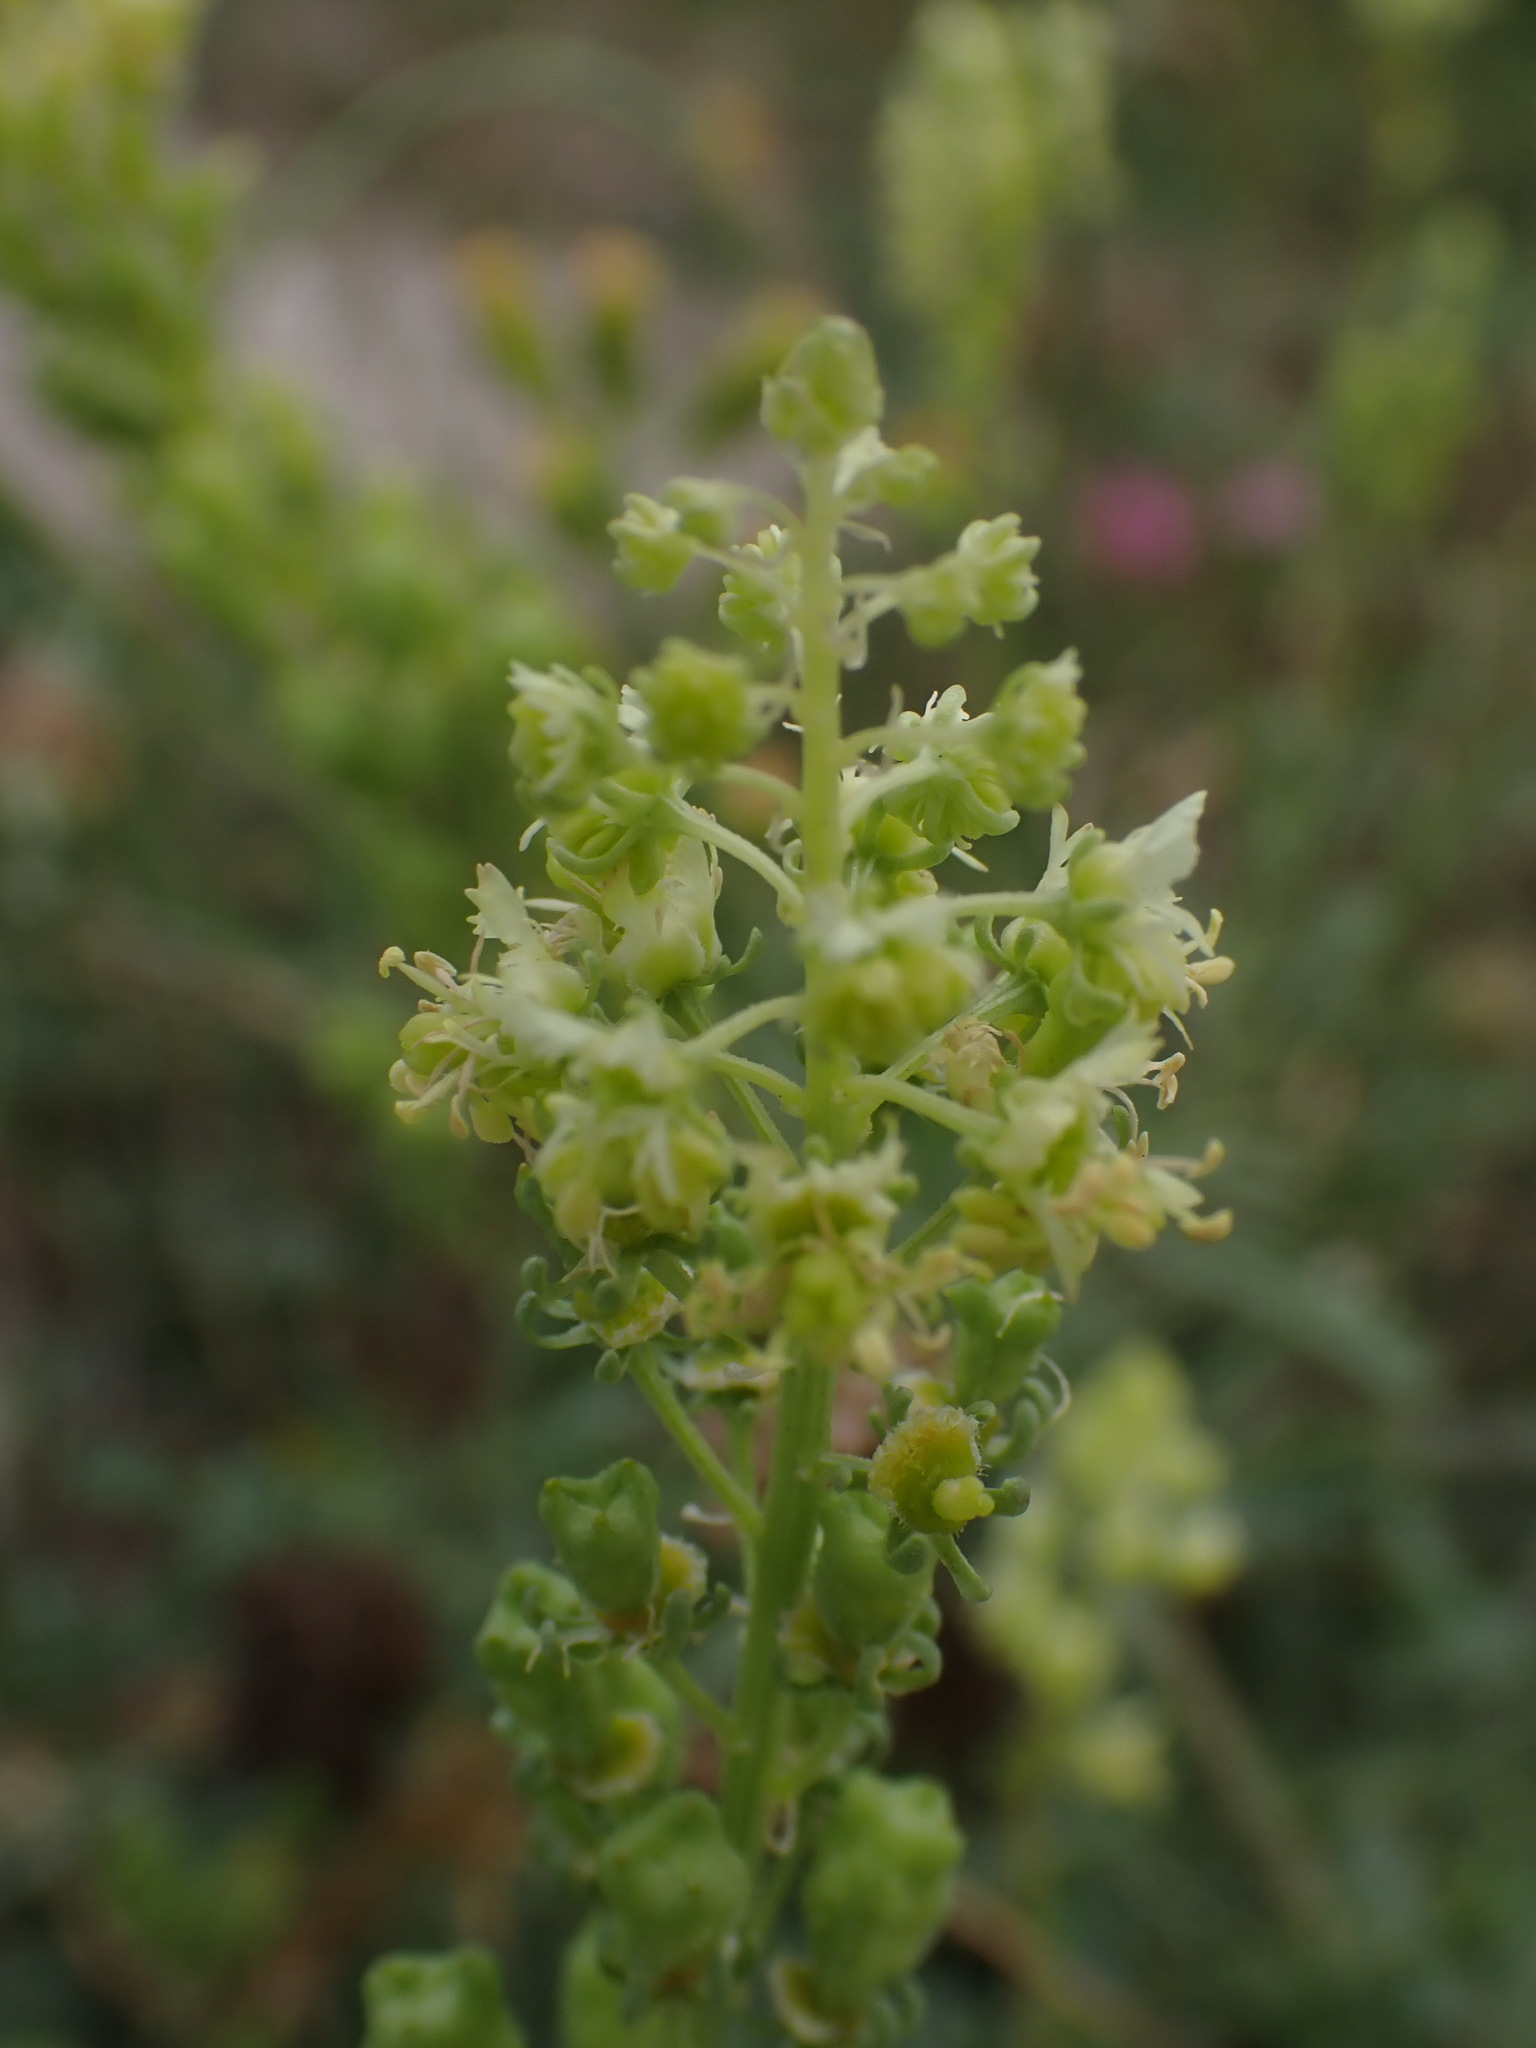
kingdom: Plantae
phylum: Tracheophyta
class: Magnoliopsida
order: Brassicales
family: Resedaceae
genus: Reseda
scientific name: Reseda lutea
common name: Wild mignonette
